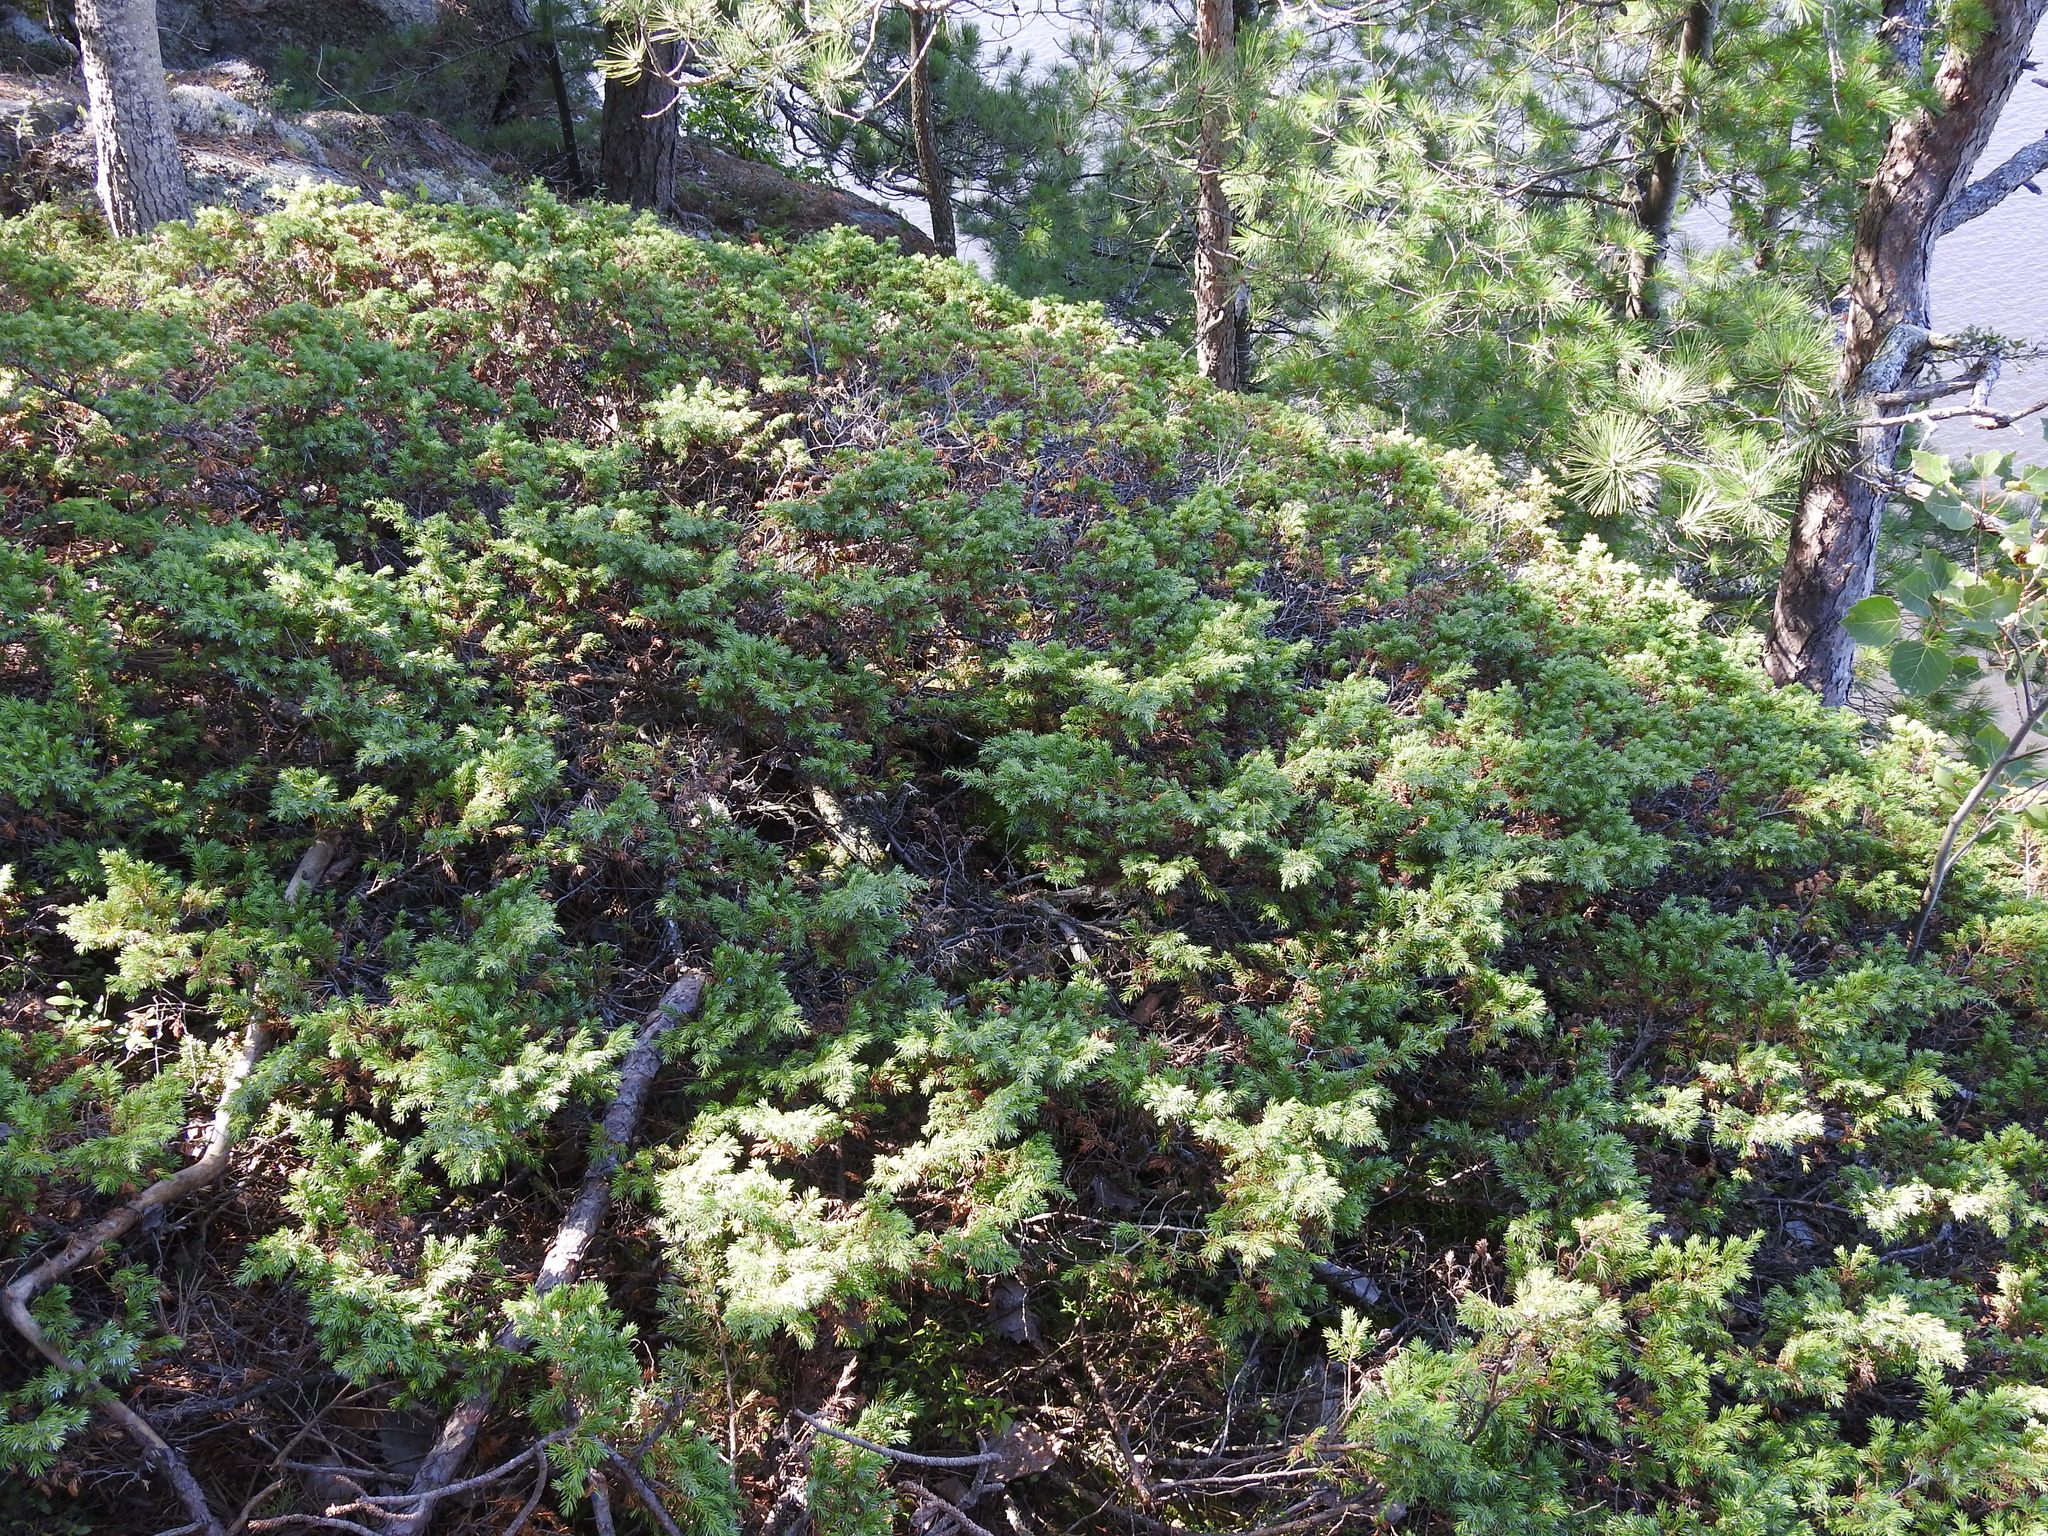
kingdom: Plantae
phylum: Tracheophyta
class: Pinopsida
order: Pinales
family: Cupressaceae
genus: Juniperus
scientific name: Juniperus communis
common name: Common juniper
